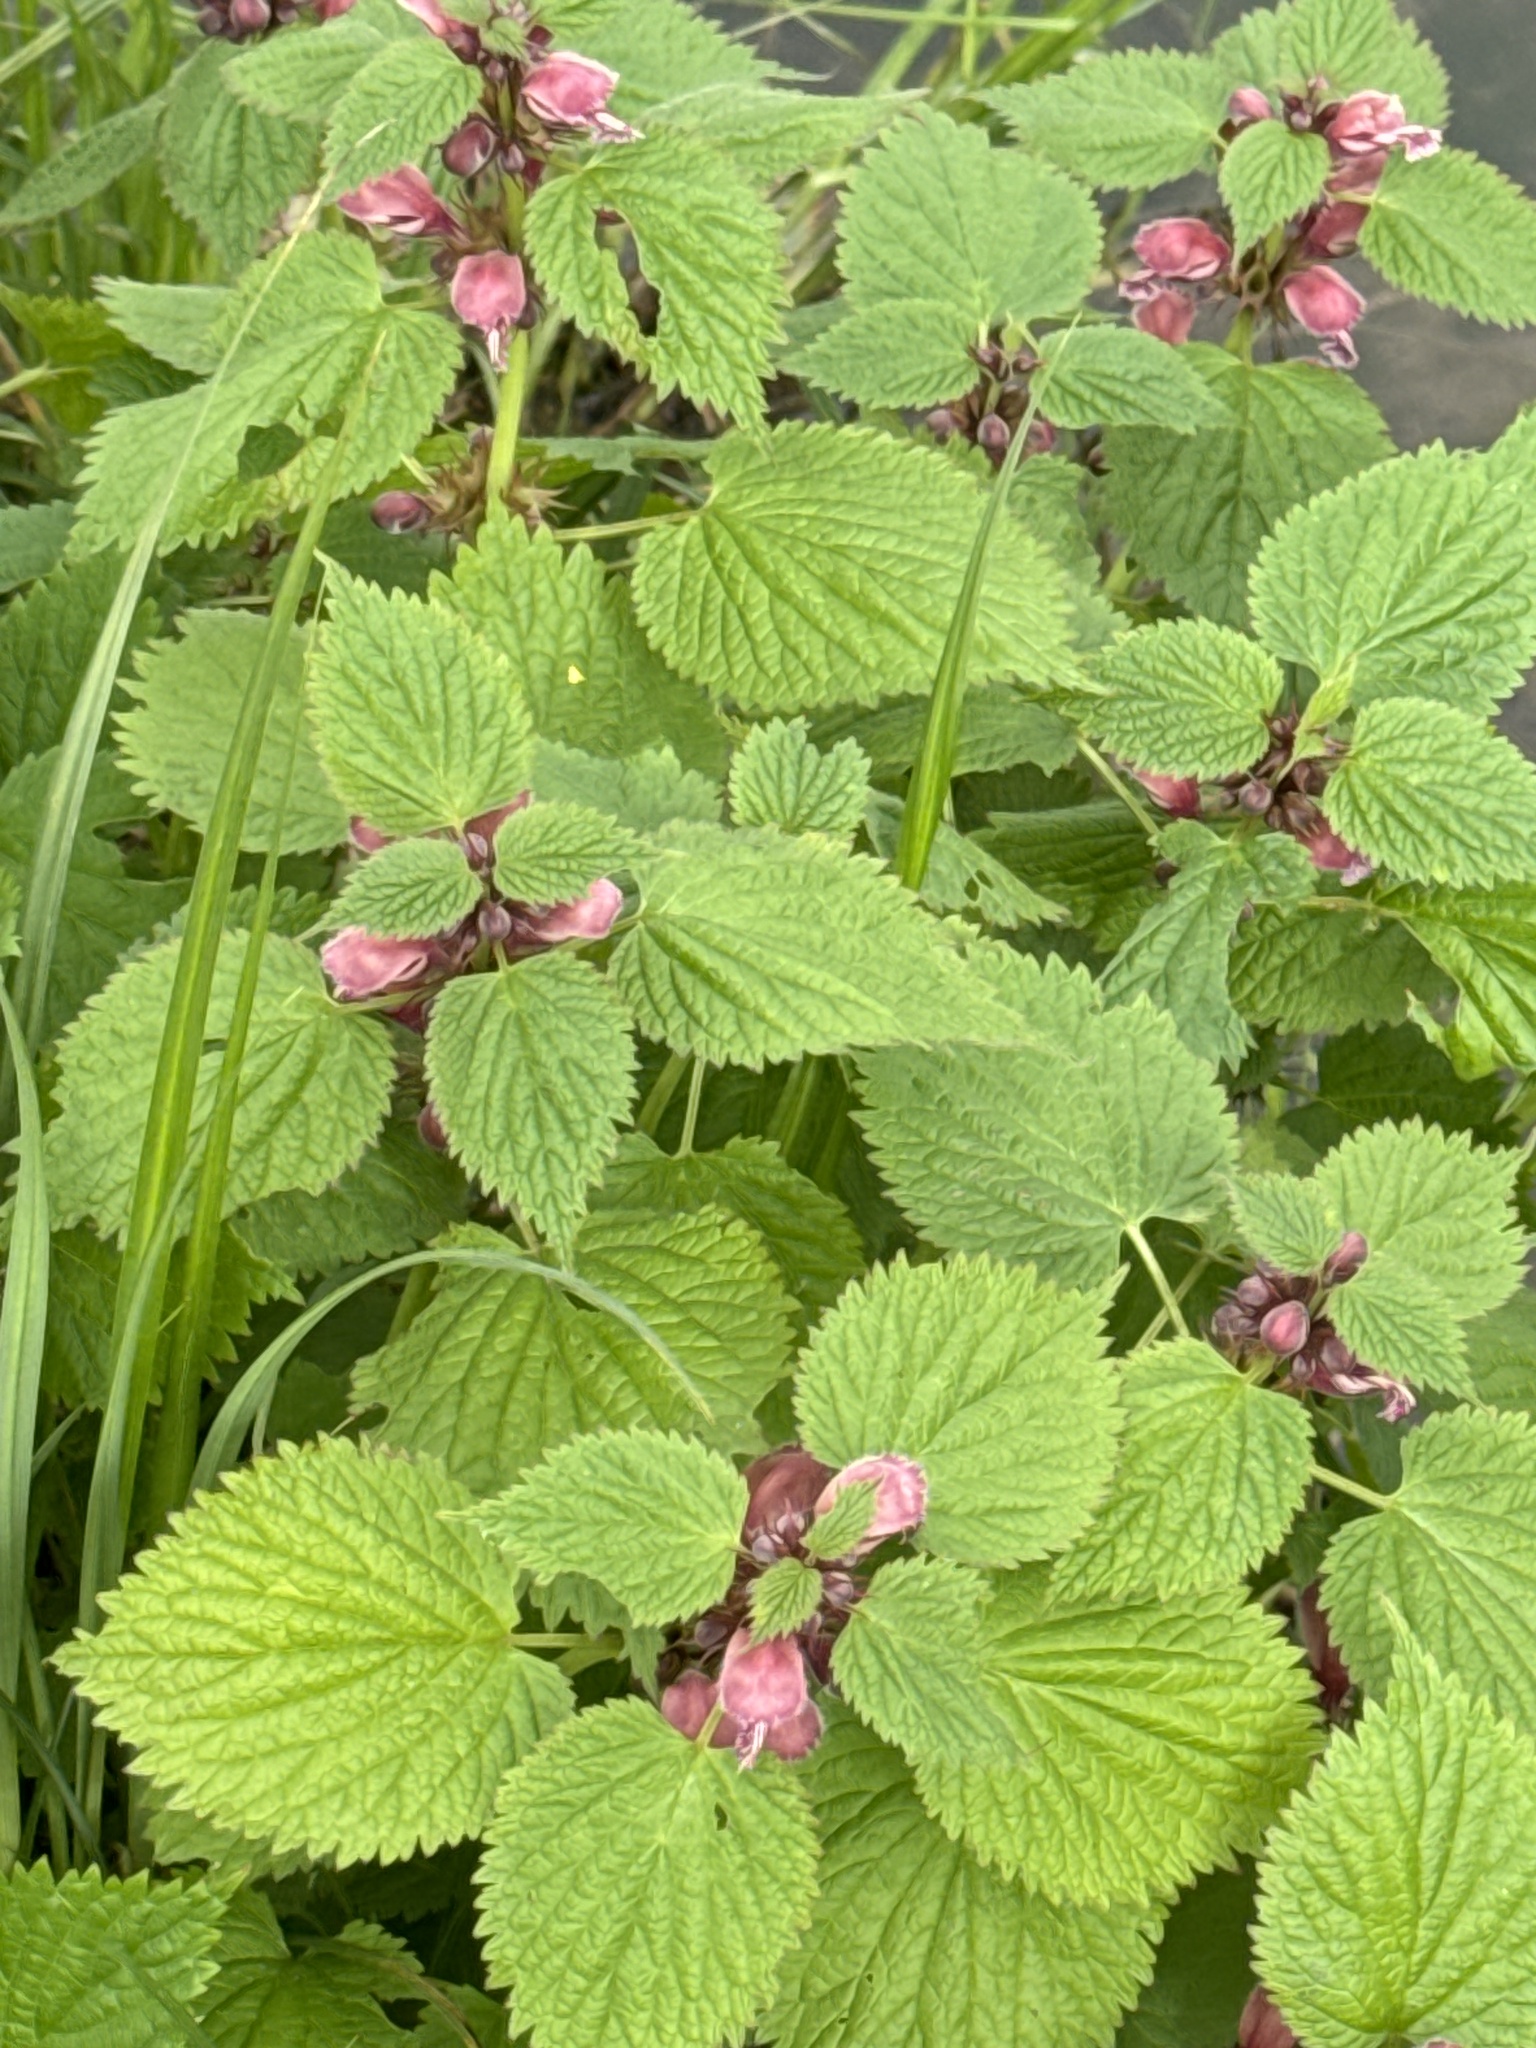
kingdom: Plantae
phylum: Tracheophyta
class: Magnoliopsida
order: Lamiales
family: Lamiaceae
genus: Lamium
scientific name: Lamium orvala
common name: Balm-leaved archangel
